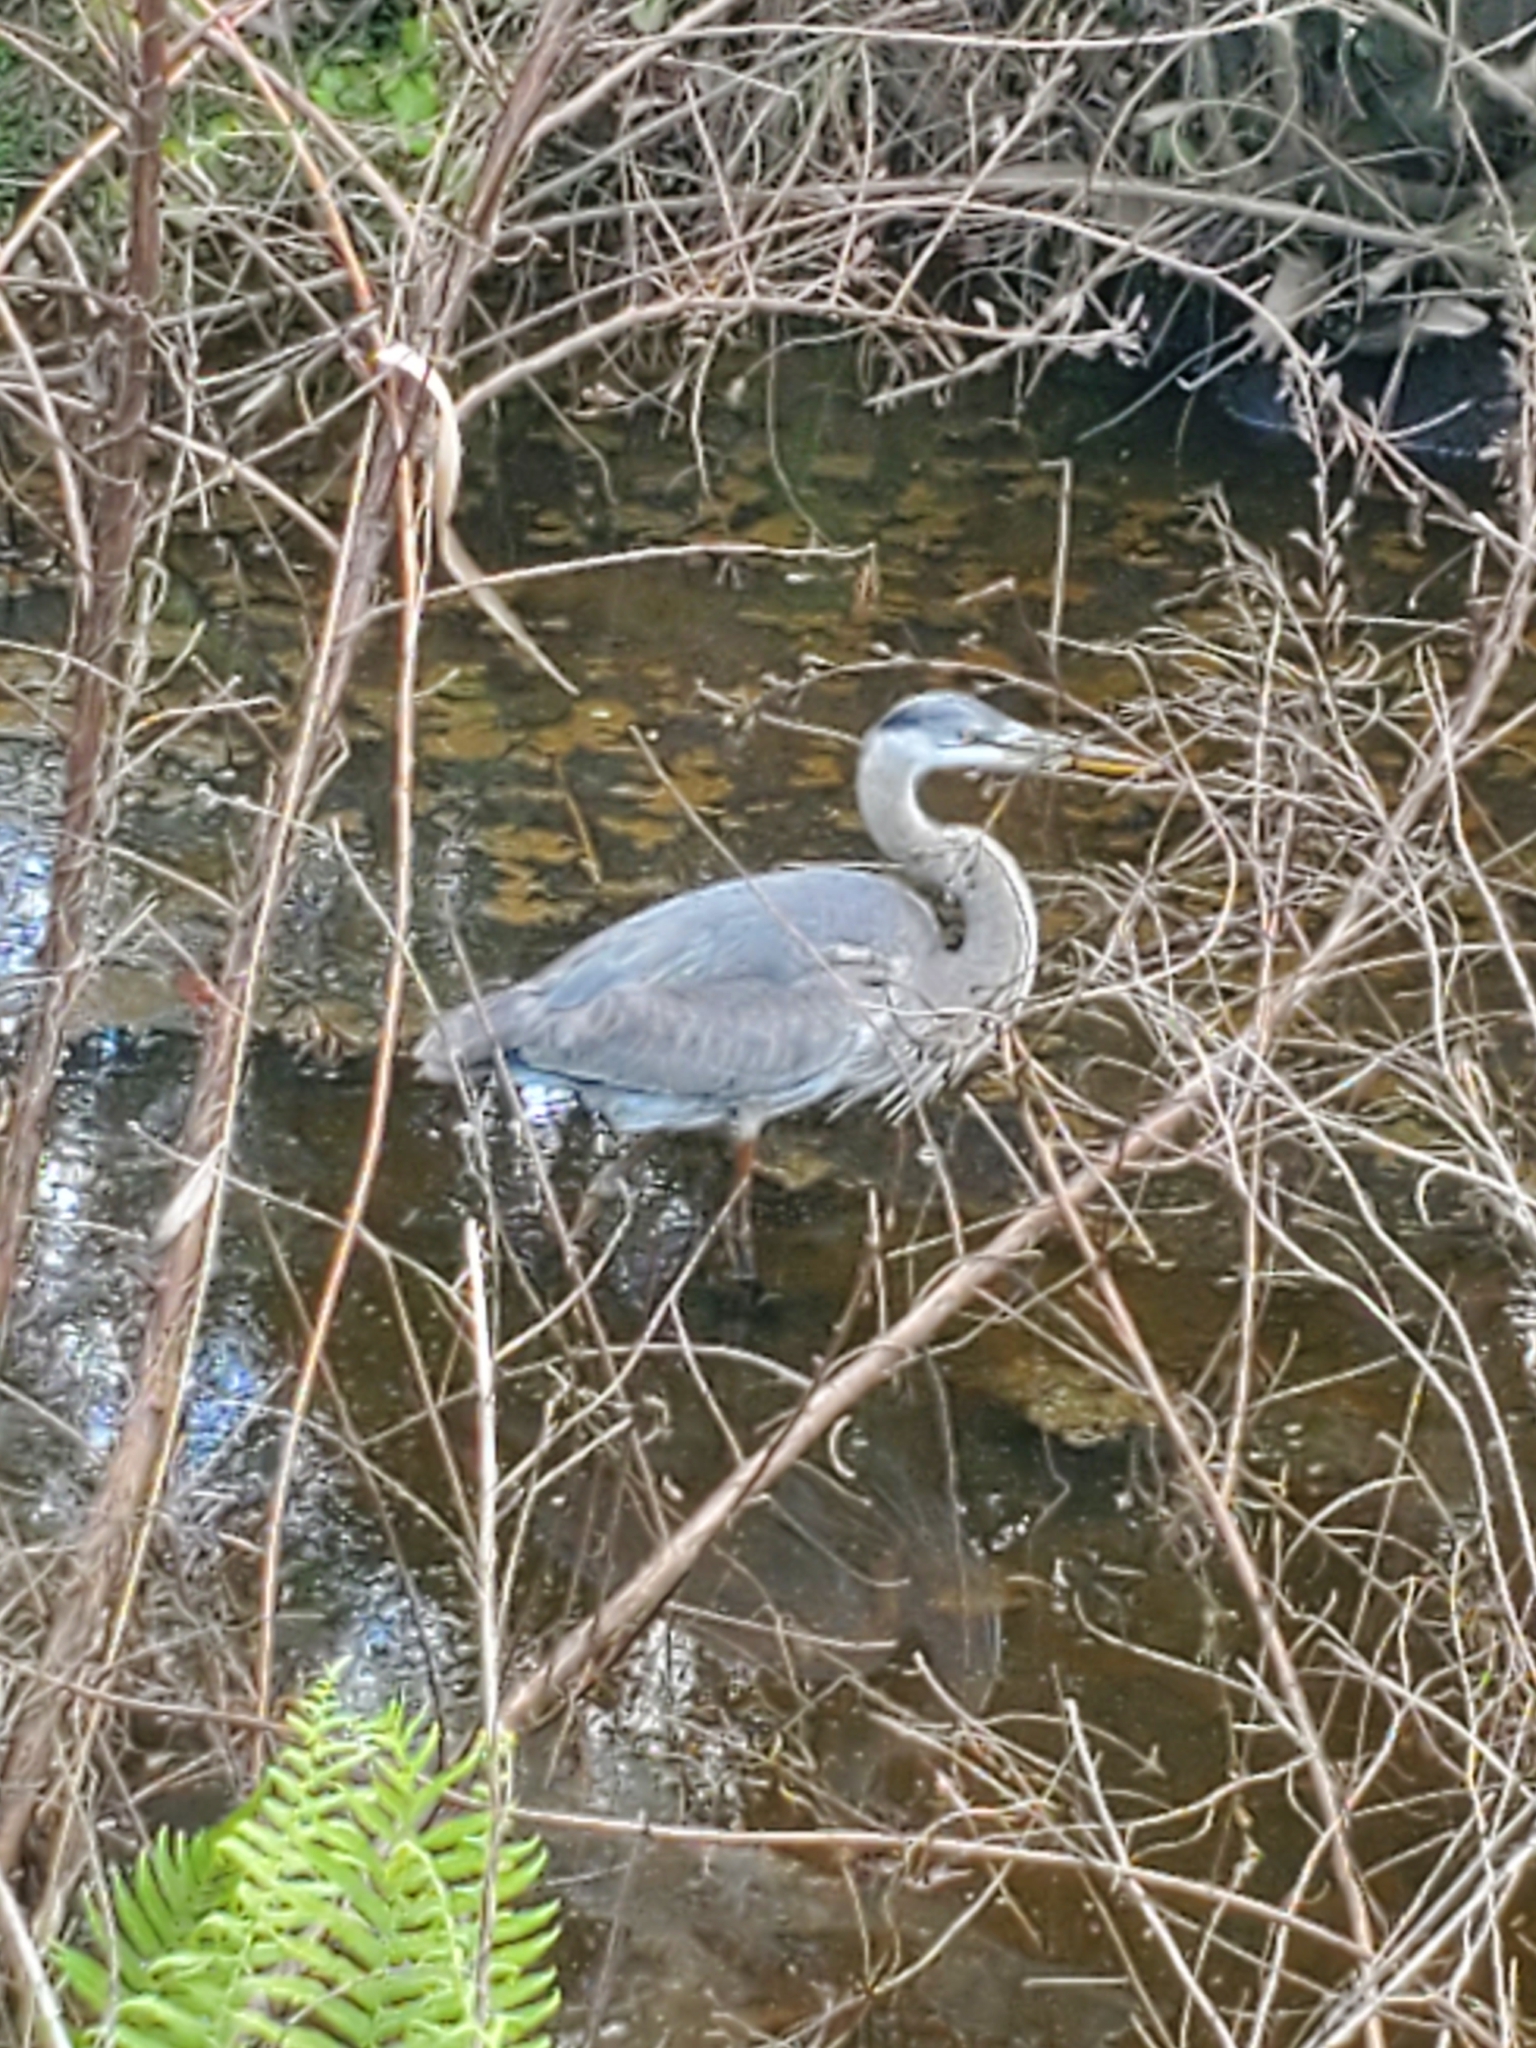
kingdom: Animalia
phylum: Chordata
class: Aves
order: Pelecaniformes
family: Ardeidae
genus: Ardea
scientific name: Ardea herodias
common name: Great blue heron
